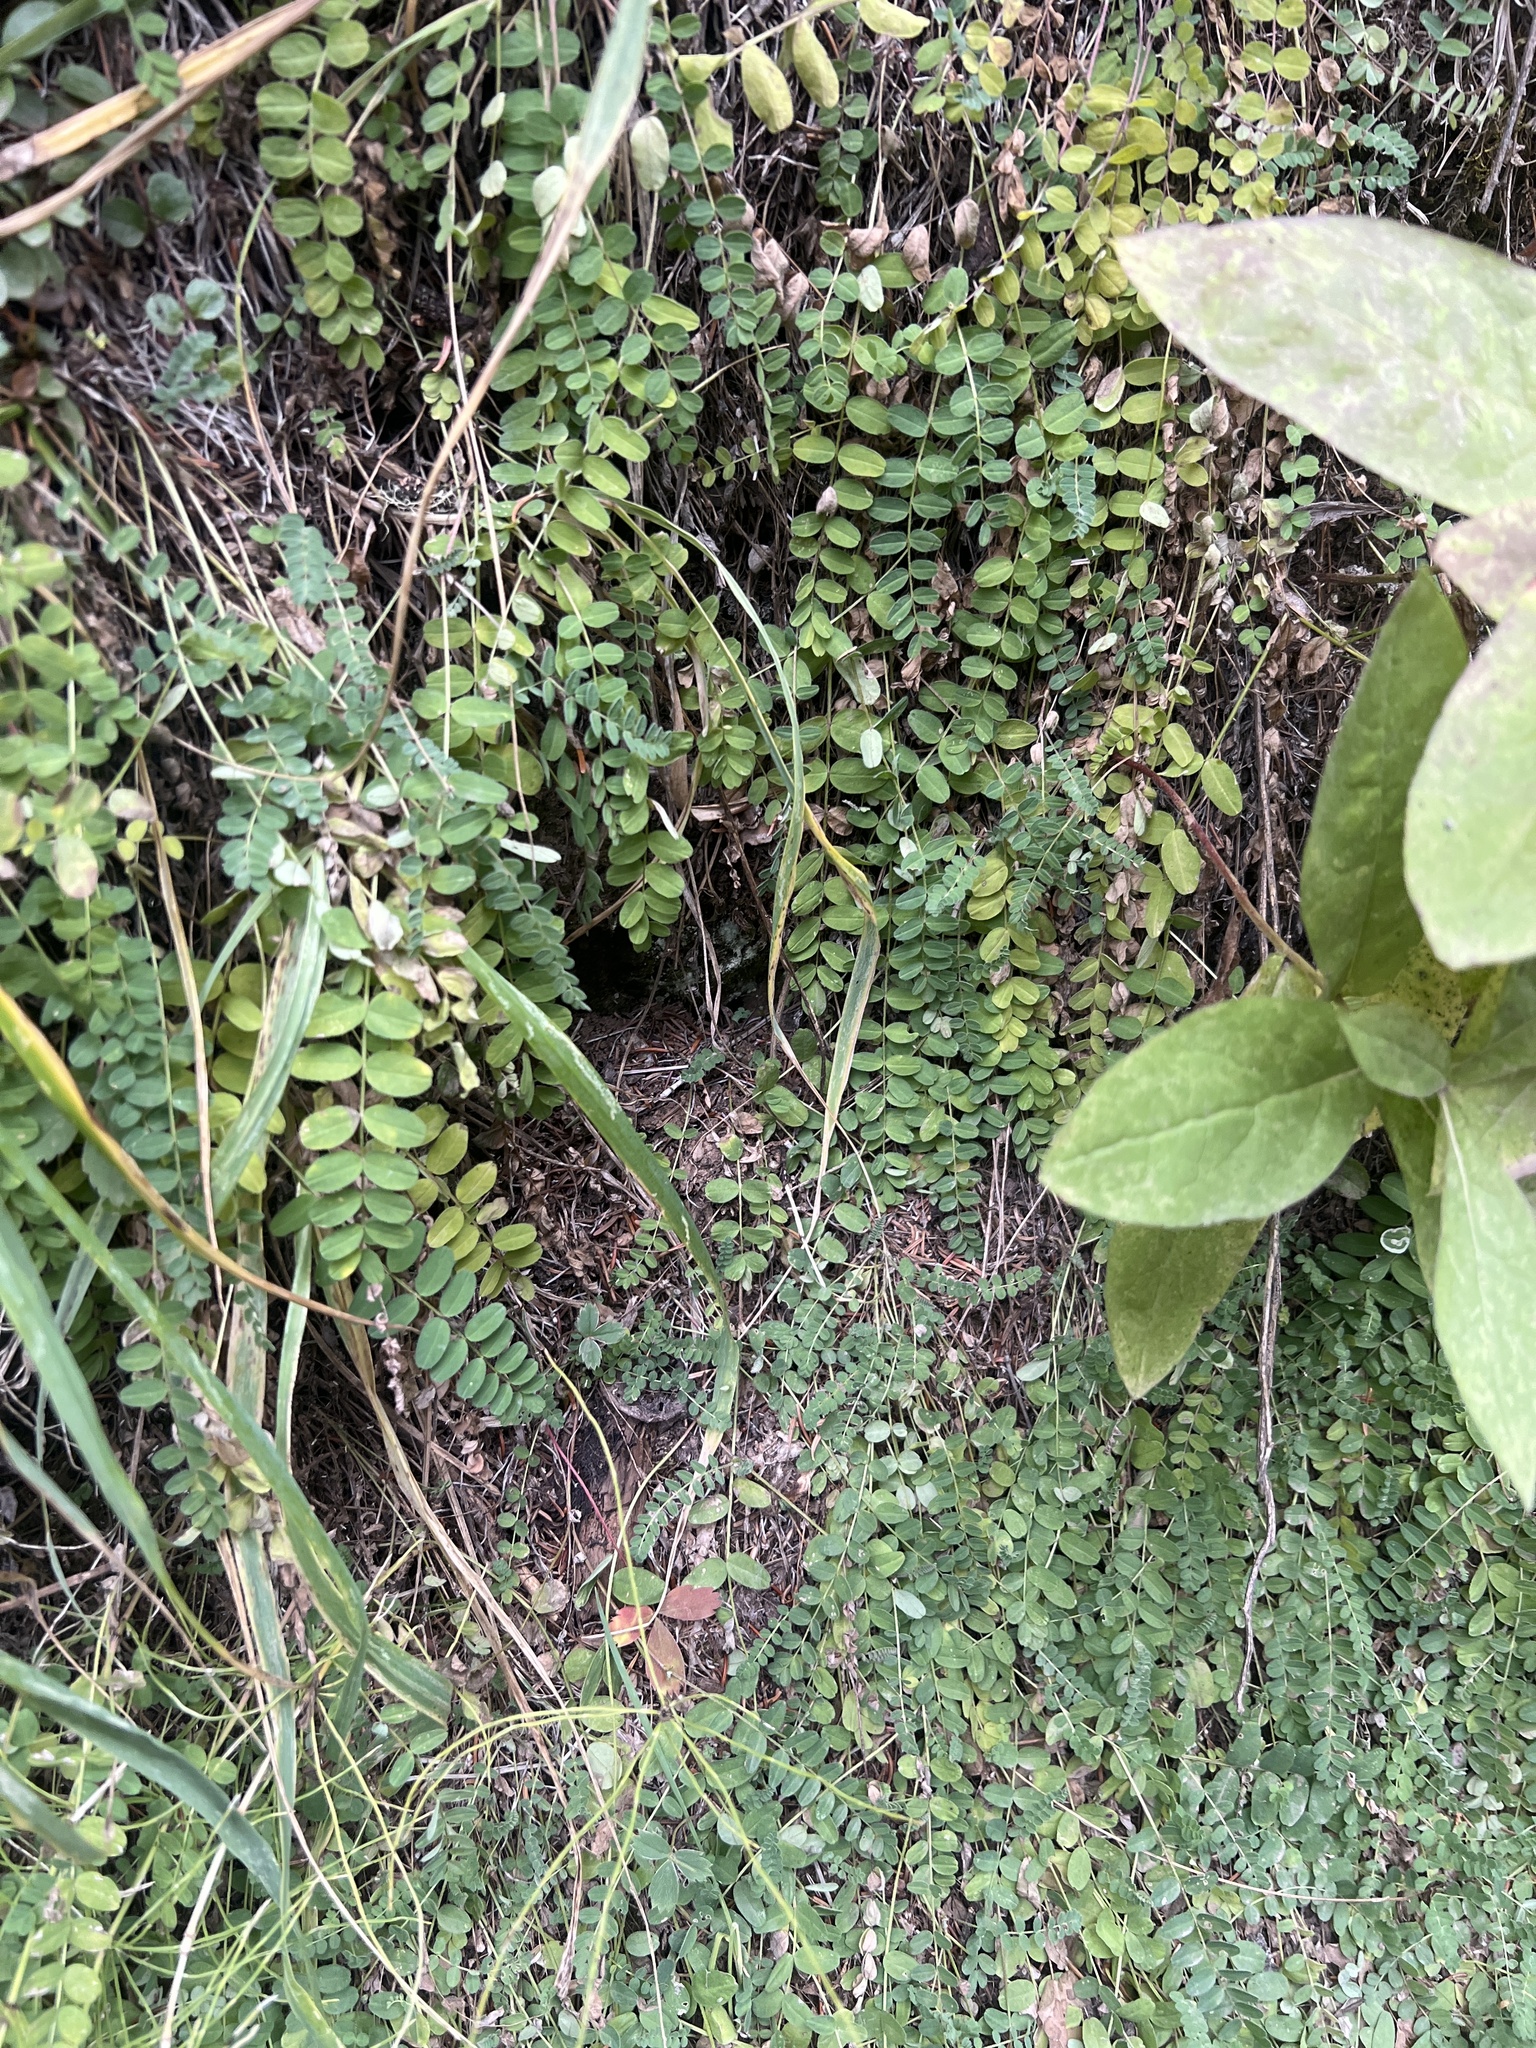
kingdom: Plantae
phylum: Tracheophyta
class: Magnoliopsida
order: Fabales
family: Fabaceae
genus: Astragalus
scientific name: Astragalus alpinus
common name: Alpine milk-vetch
